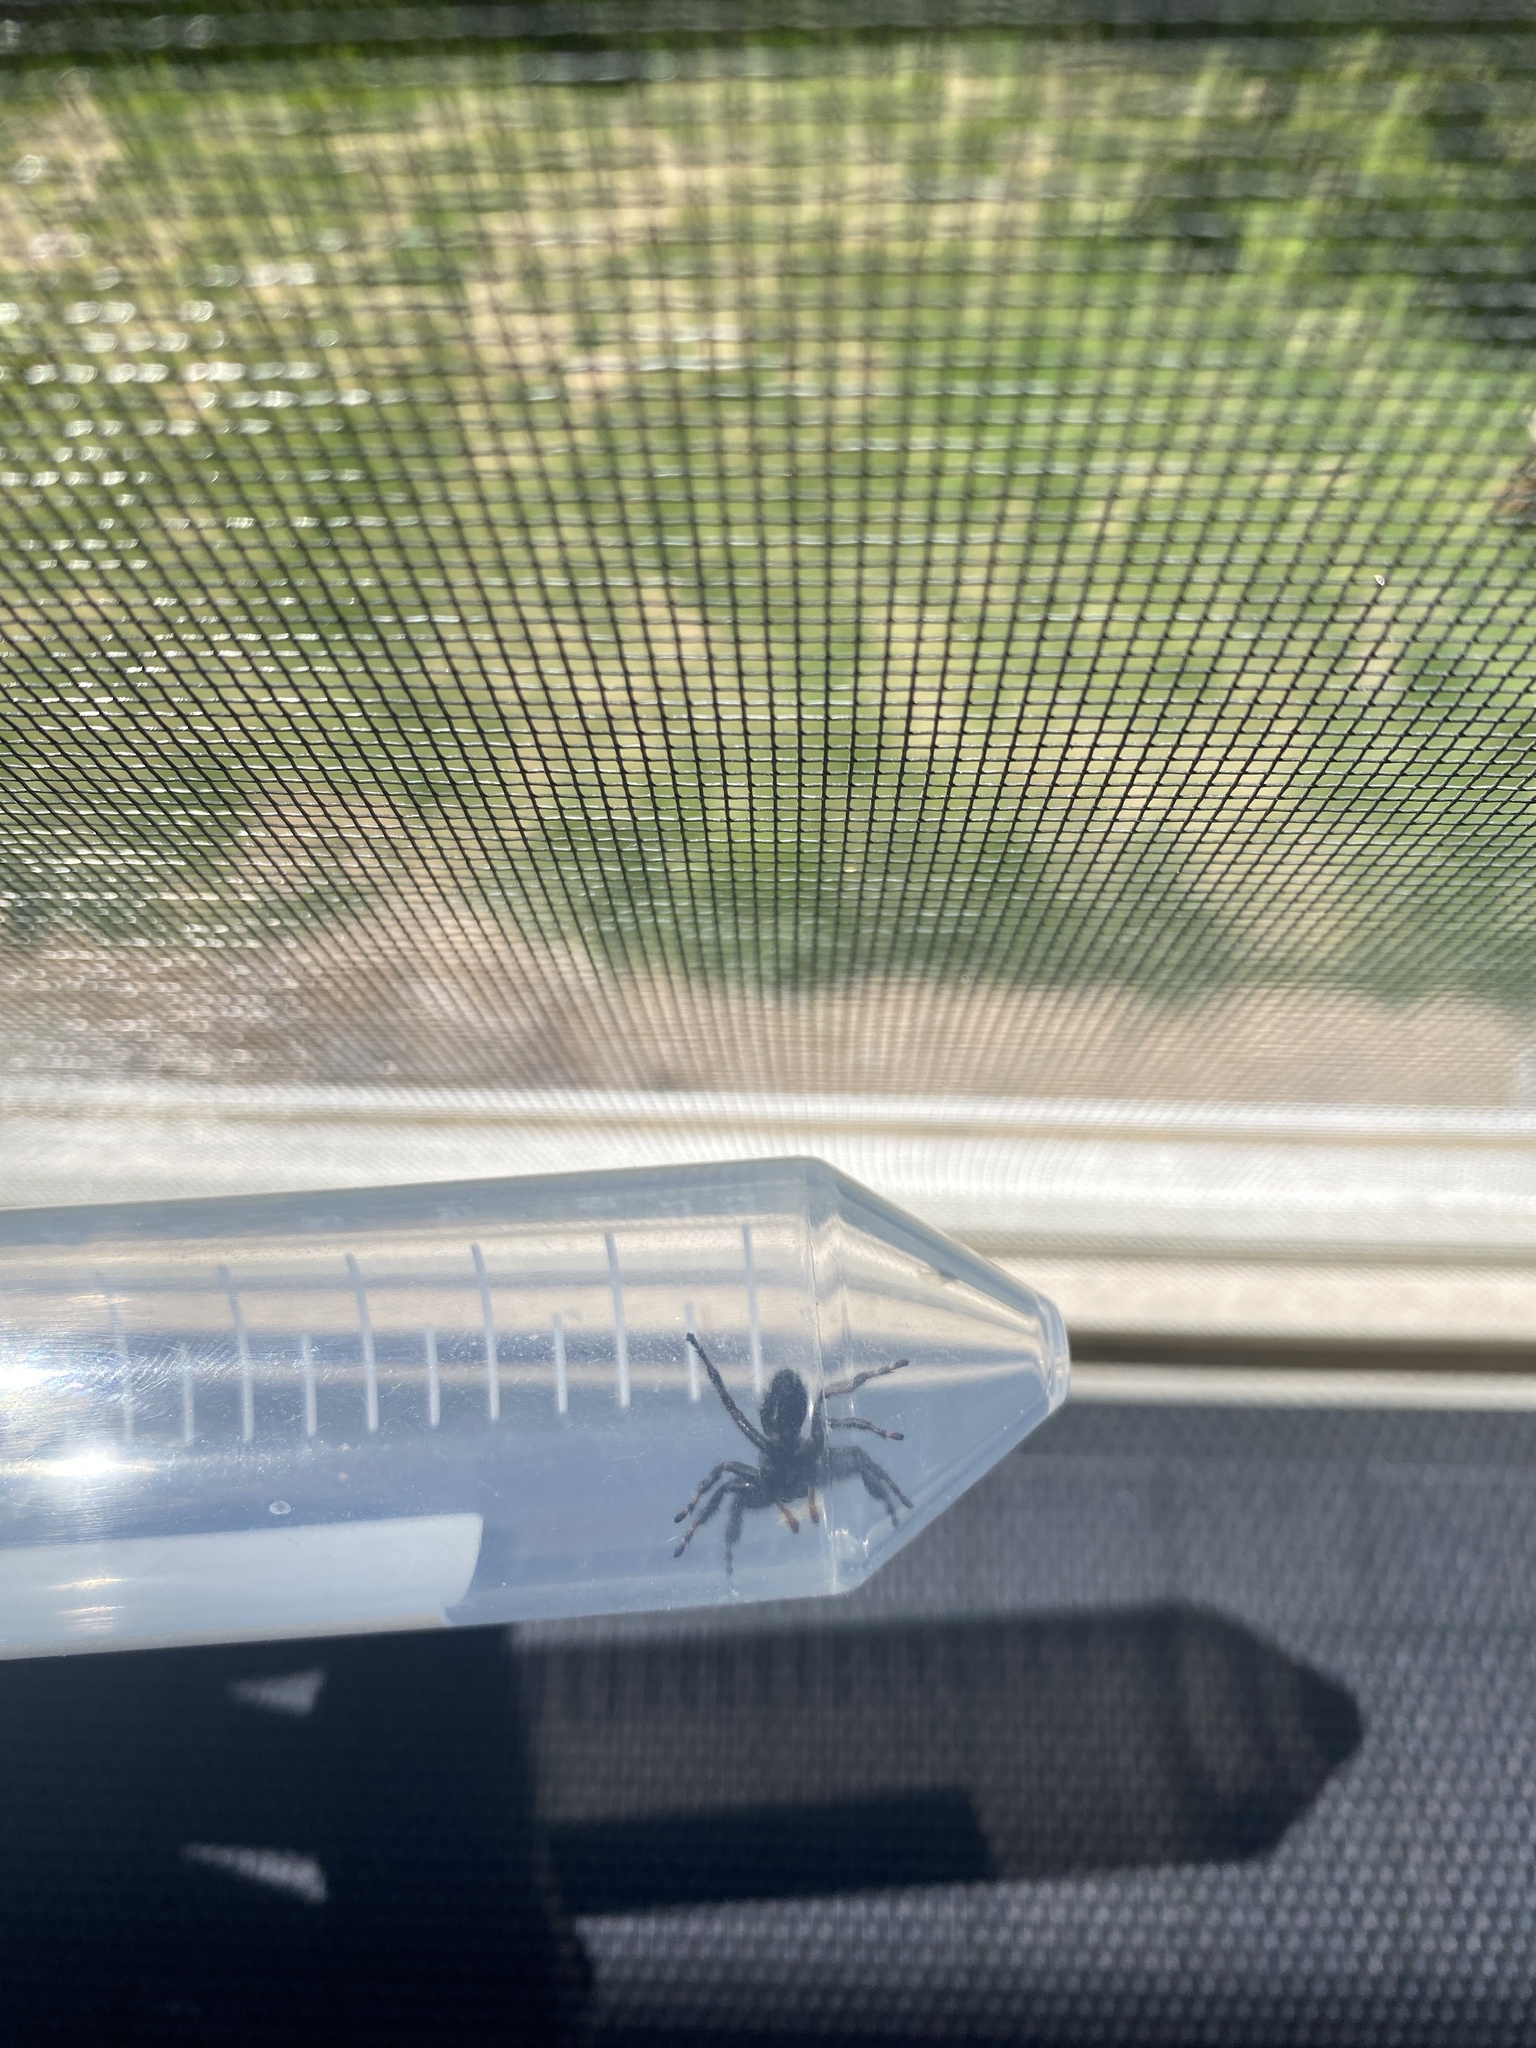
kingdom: Animalia
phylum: Arthropoda
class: Arachnida
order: Araneae
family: Salticidae
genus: Phidippus
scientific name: Phidippus audax
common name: Bold jumper
